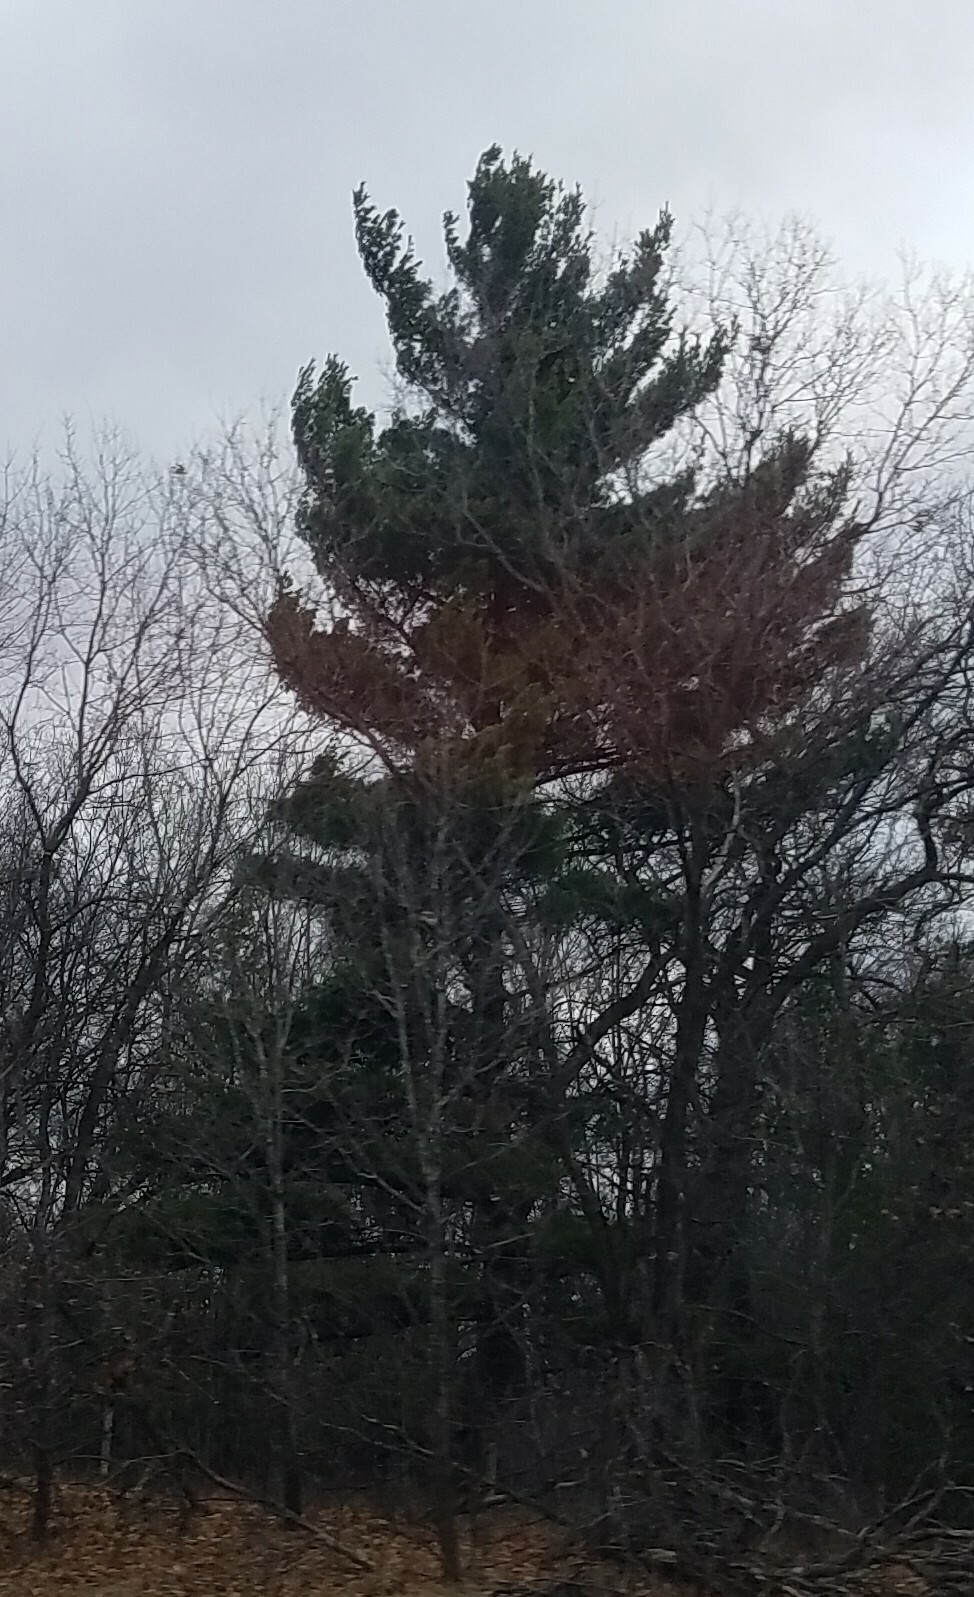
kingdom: Plantae
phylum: Tracheophyta
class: Pinopsida
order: Pinales
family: Pinaceae
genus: Pinus
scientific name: Pinus strobus
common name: Weymouth pine
